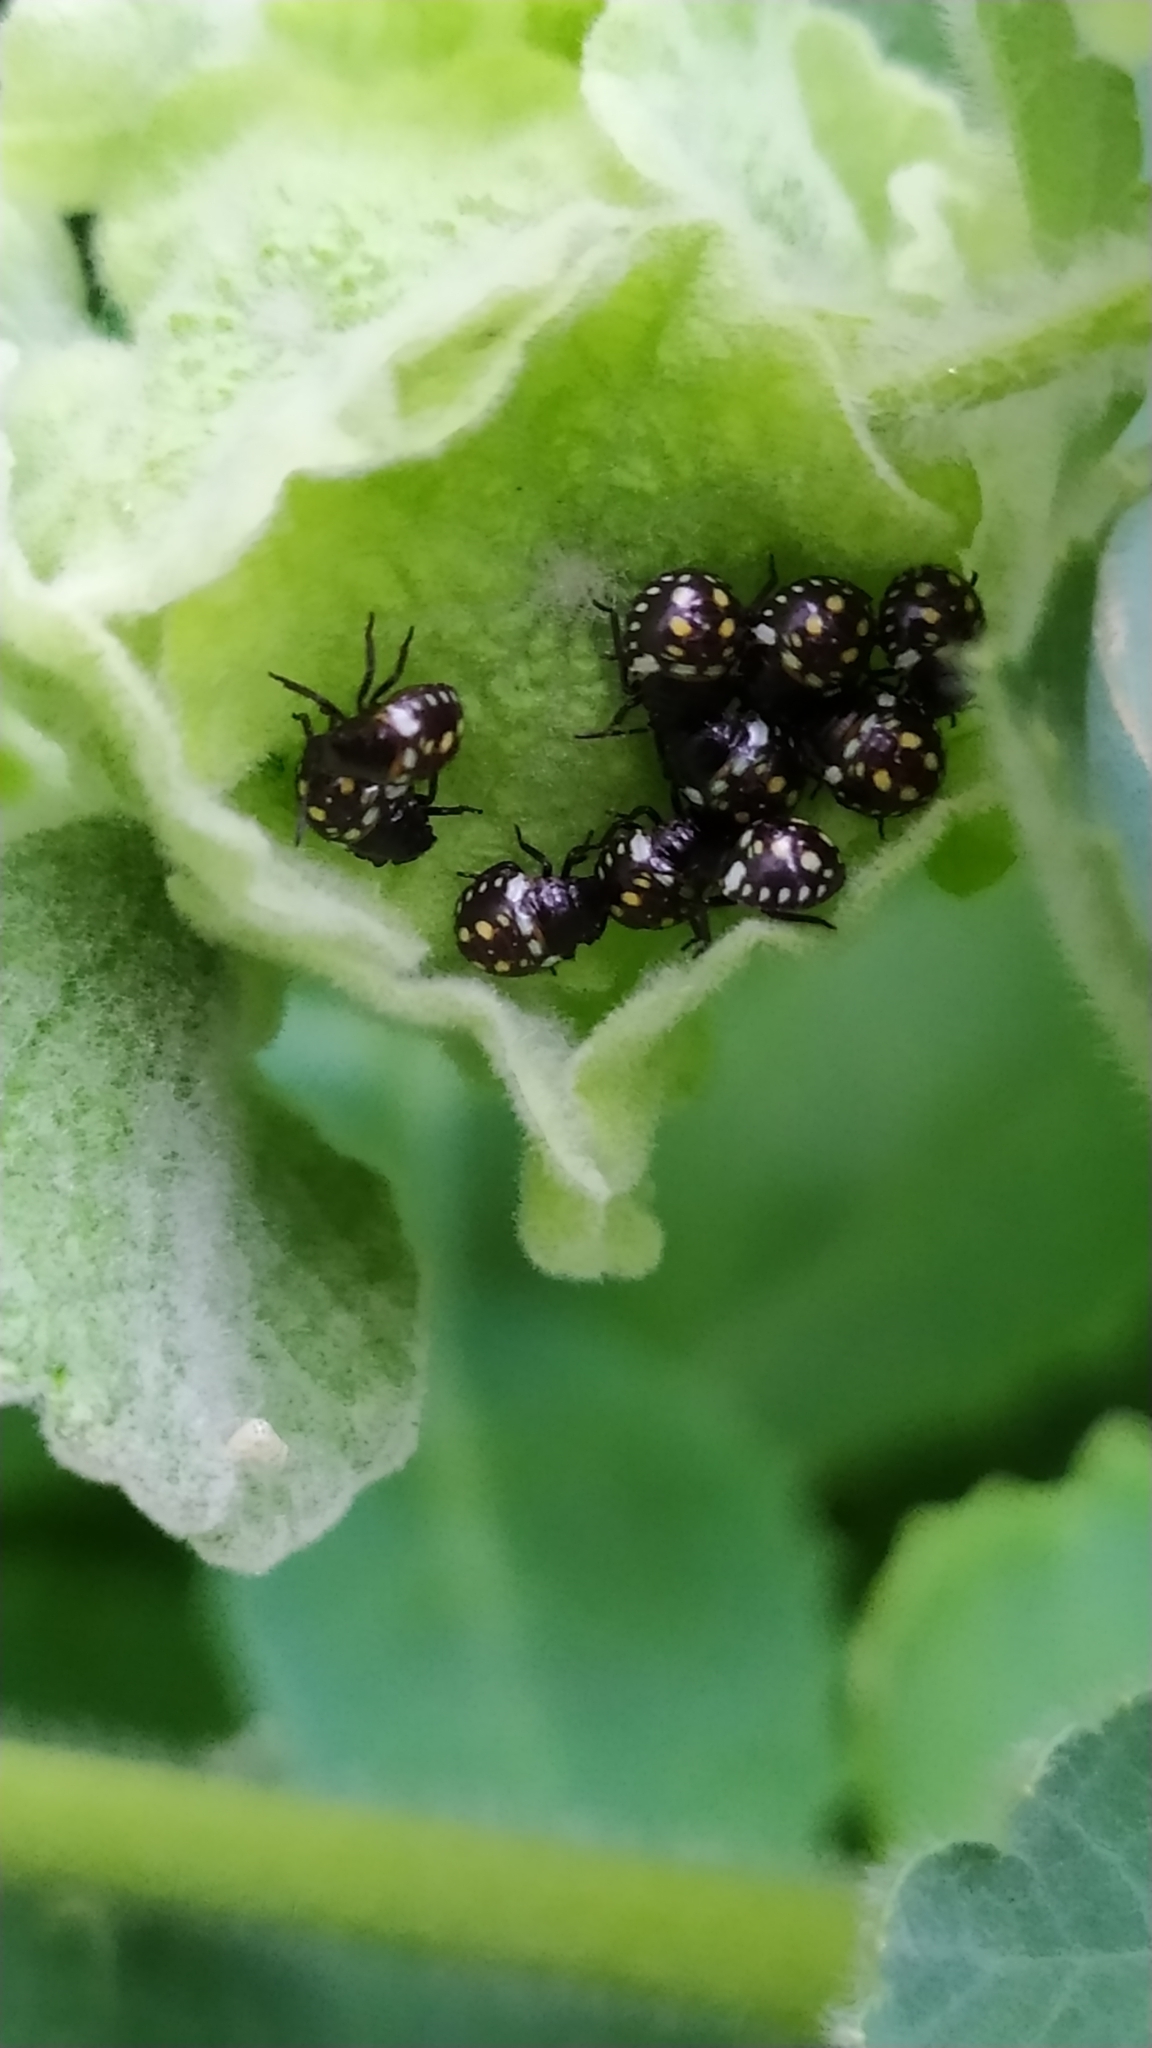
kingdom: Animalia
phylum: Arthropoda
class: Insecta
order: Hemiptera
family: Pentatomidae
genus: Nezara
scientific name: Nezara viridula
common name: Southern green stink bug
